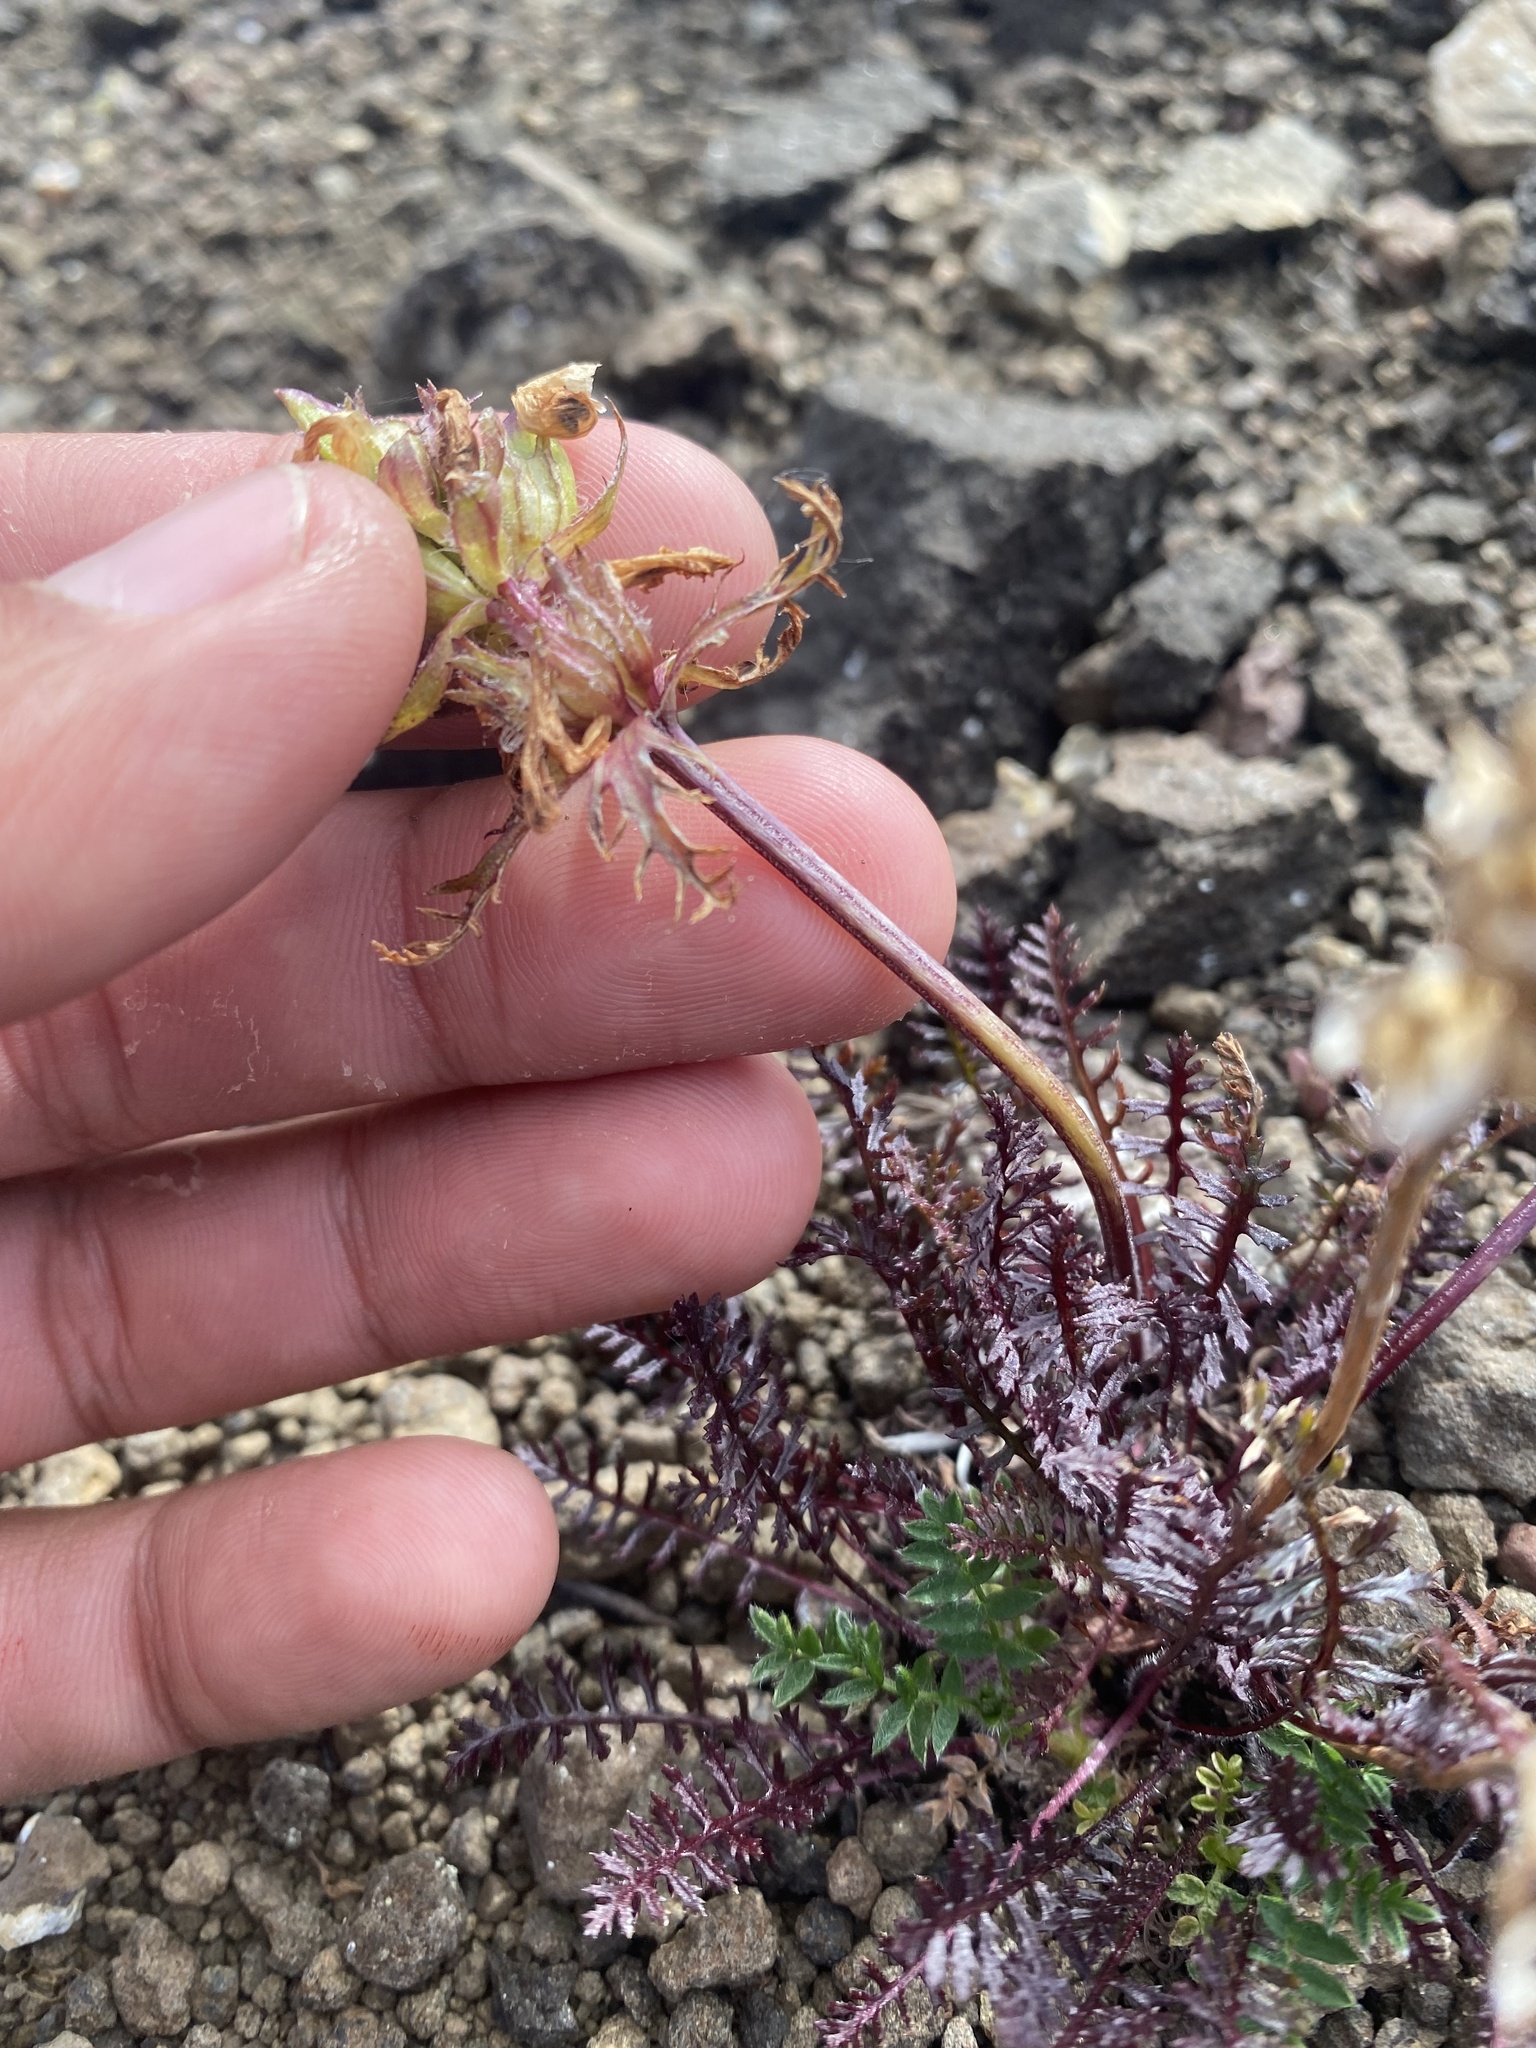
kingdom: Plantae
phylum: Tracheophyta
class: Magnoliopsida
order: Lamiales
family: Orobanchaceae
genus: Pedicularis
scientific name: Pedicularis amoena
